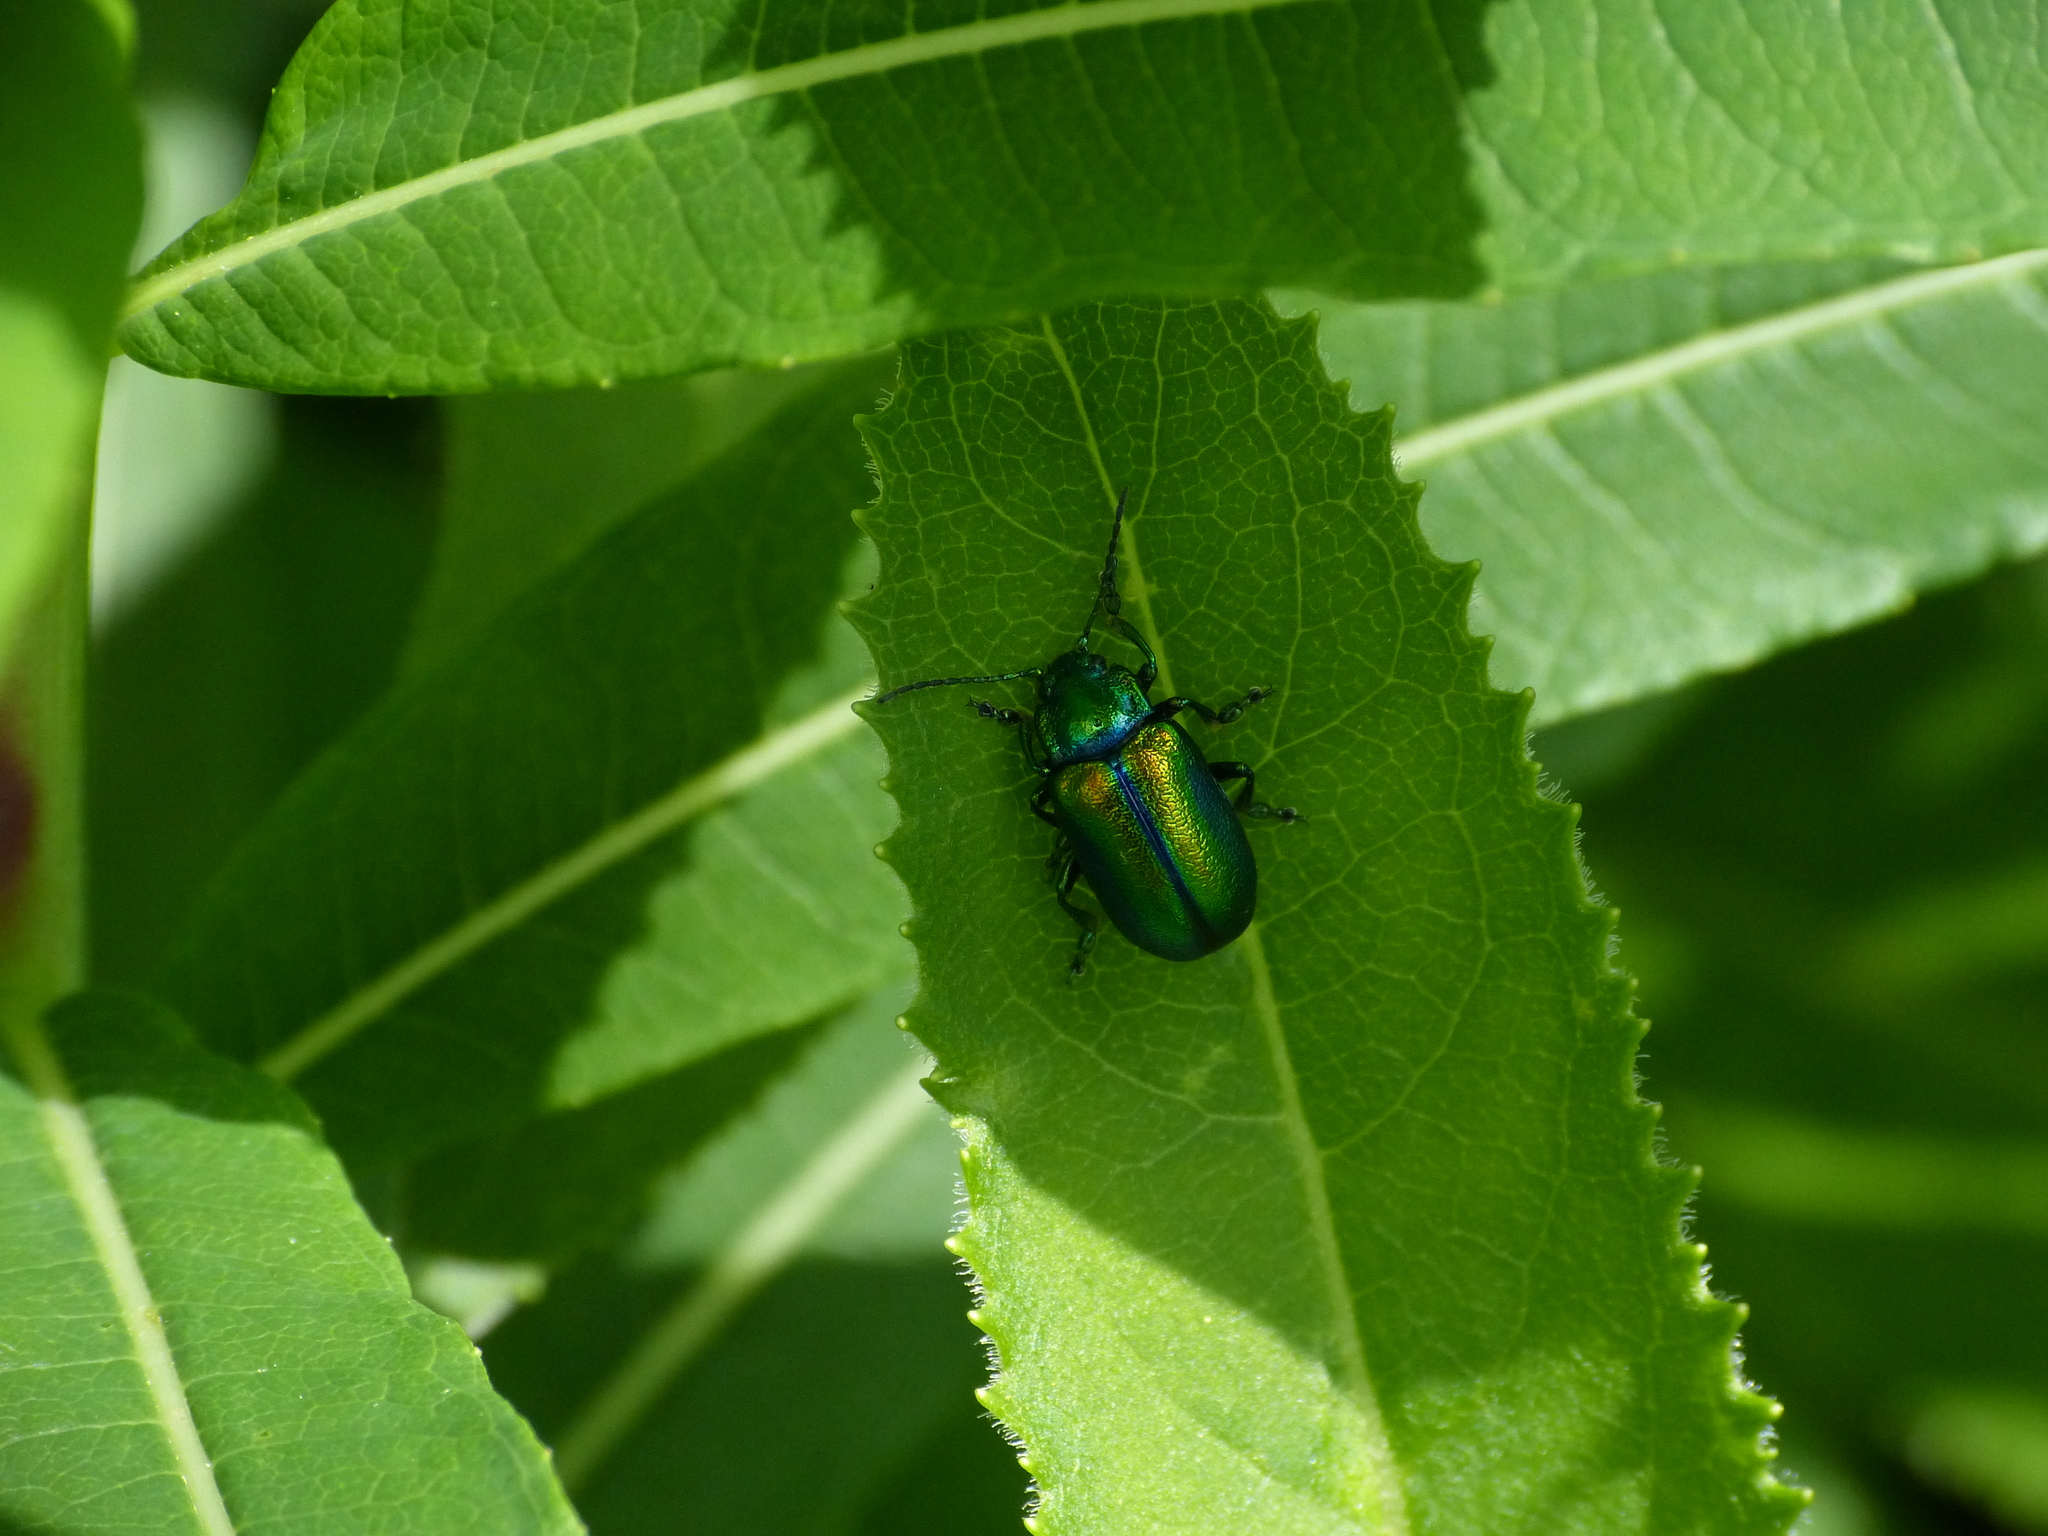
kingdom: Animalia
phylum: Arthropoda
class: Insecta
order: Coleoptera
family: Chrysomelidae
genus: Oreina
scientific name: Oreina gloriosa
